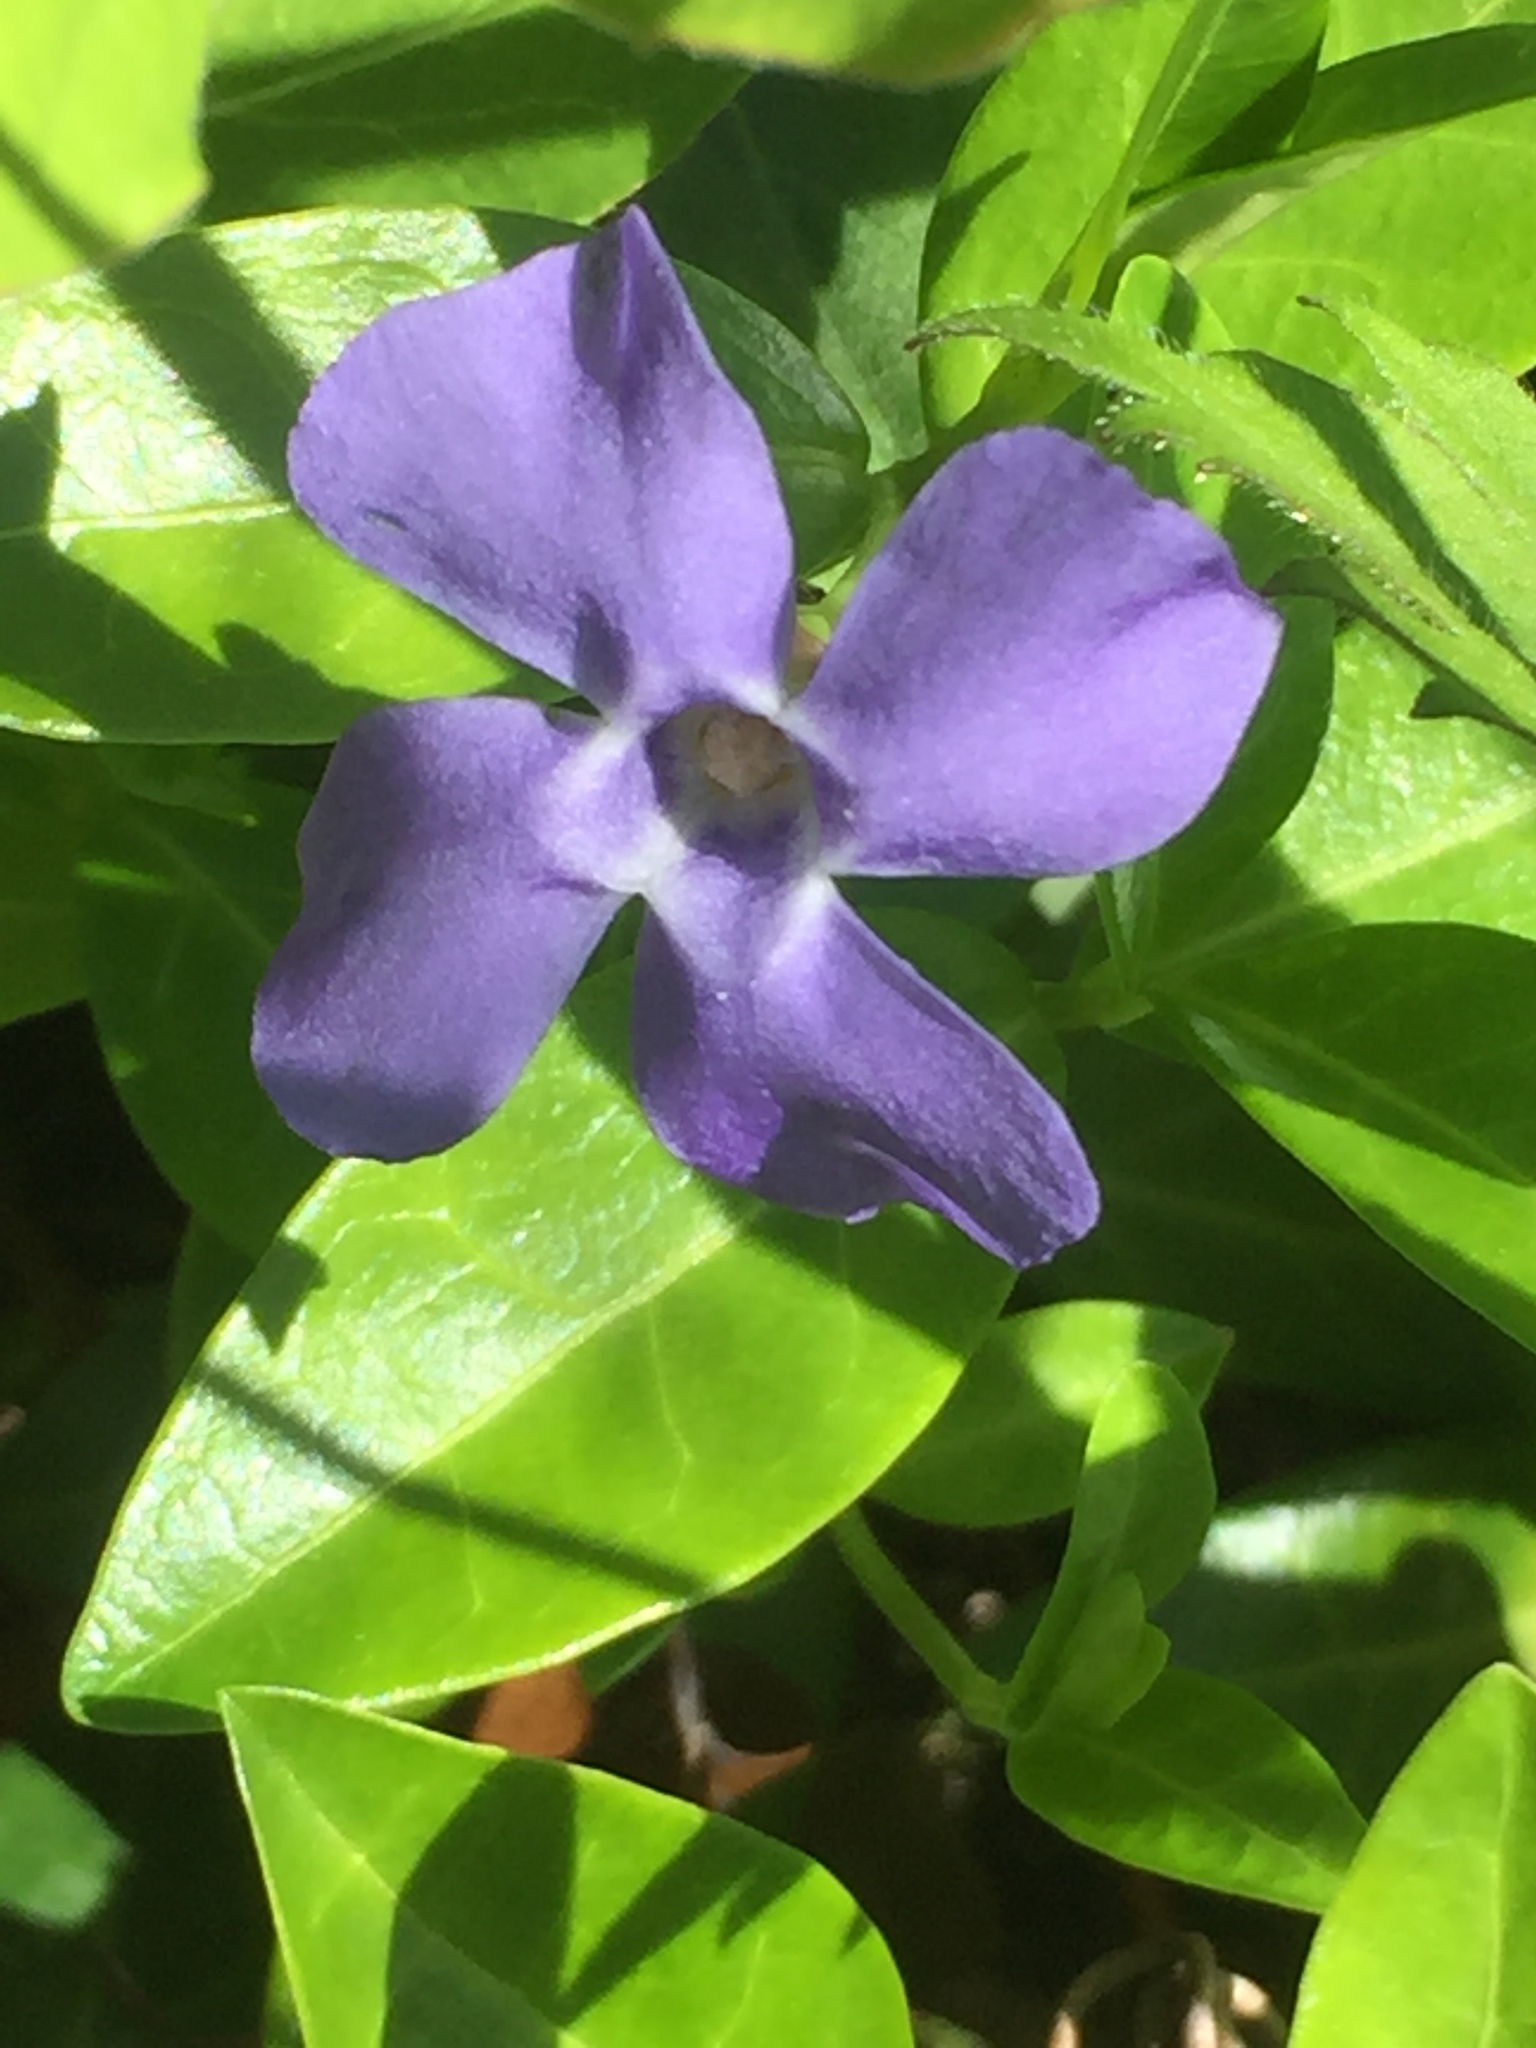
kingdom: Plantae
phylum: Tracheophyta
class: Magnoliopsida
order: Gentianales
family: Apocynaceae
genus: Vinca
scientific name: Vinca minor
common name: Lesser periwinkle
